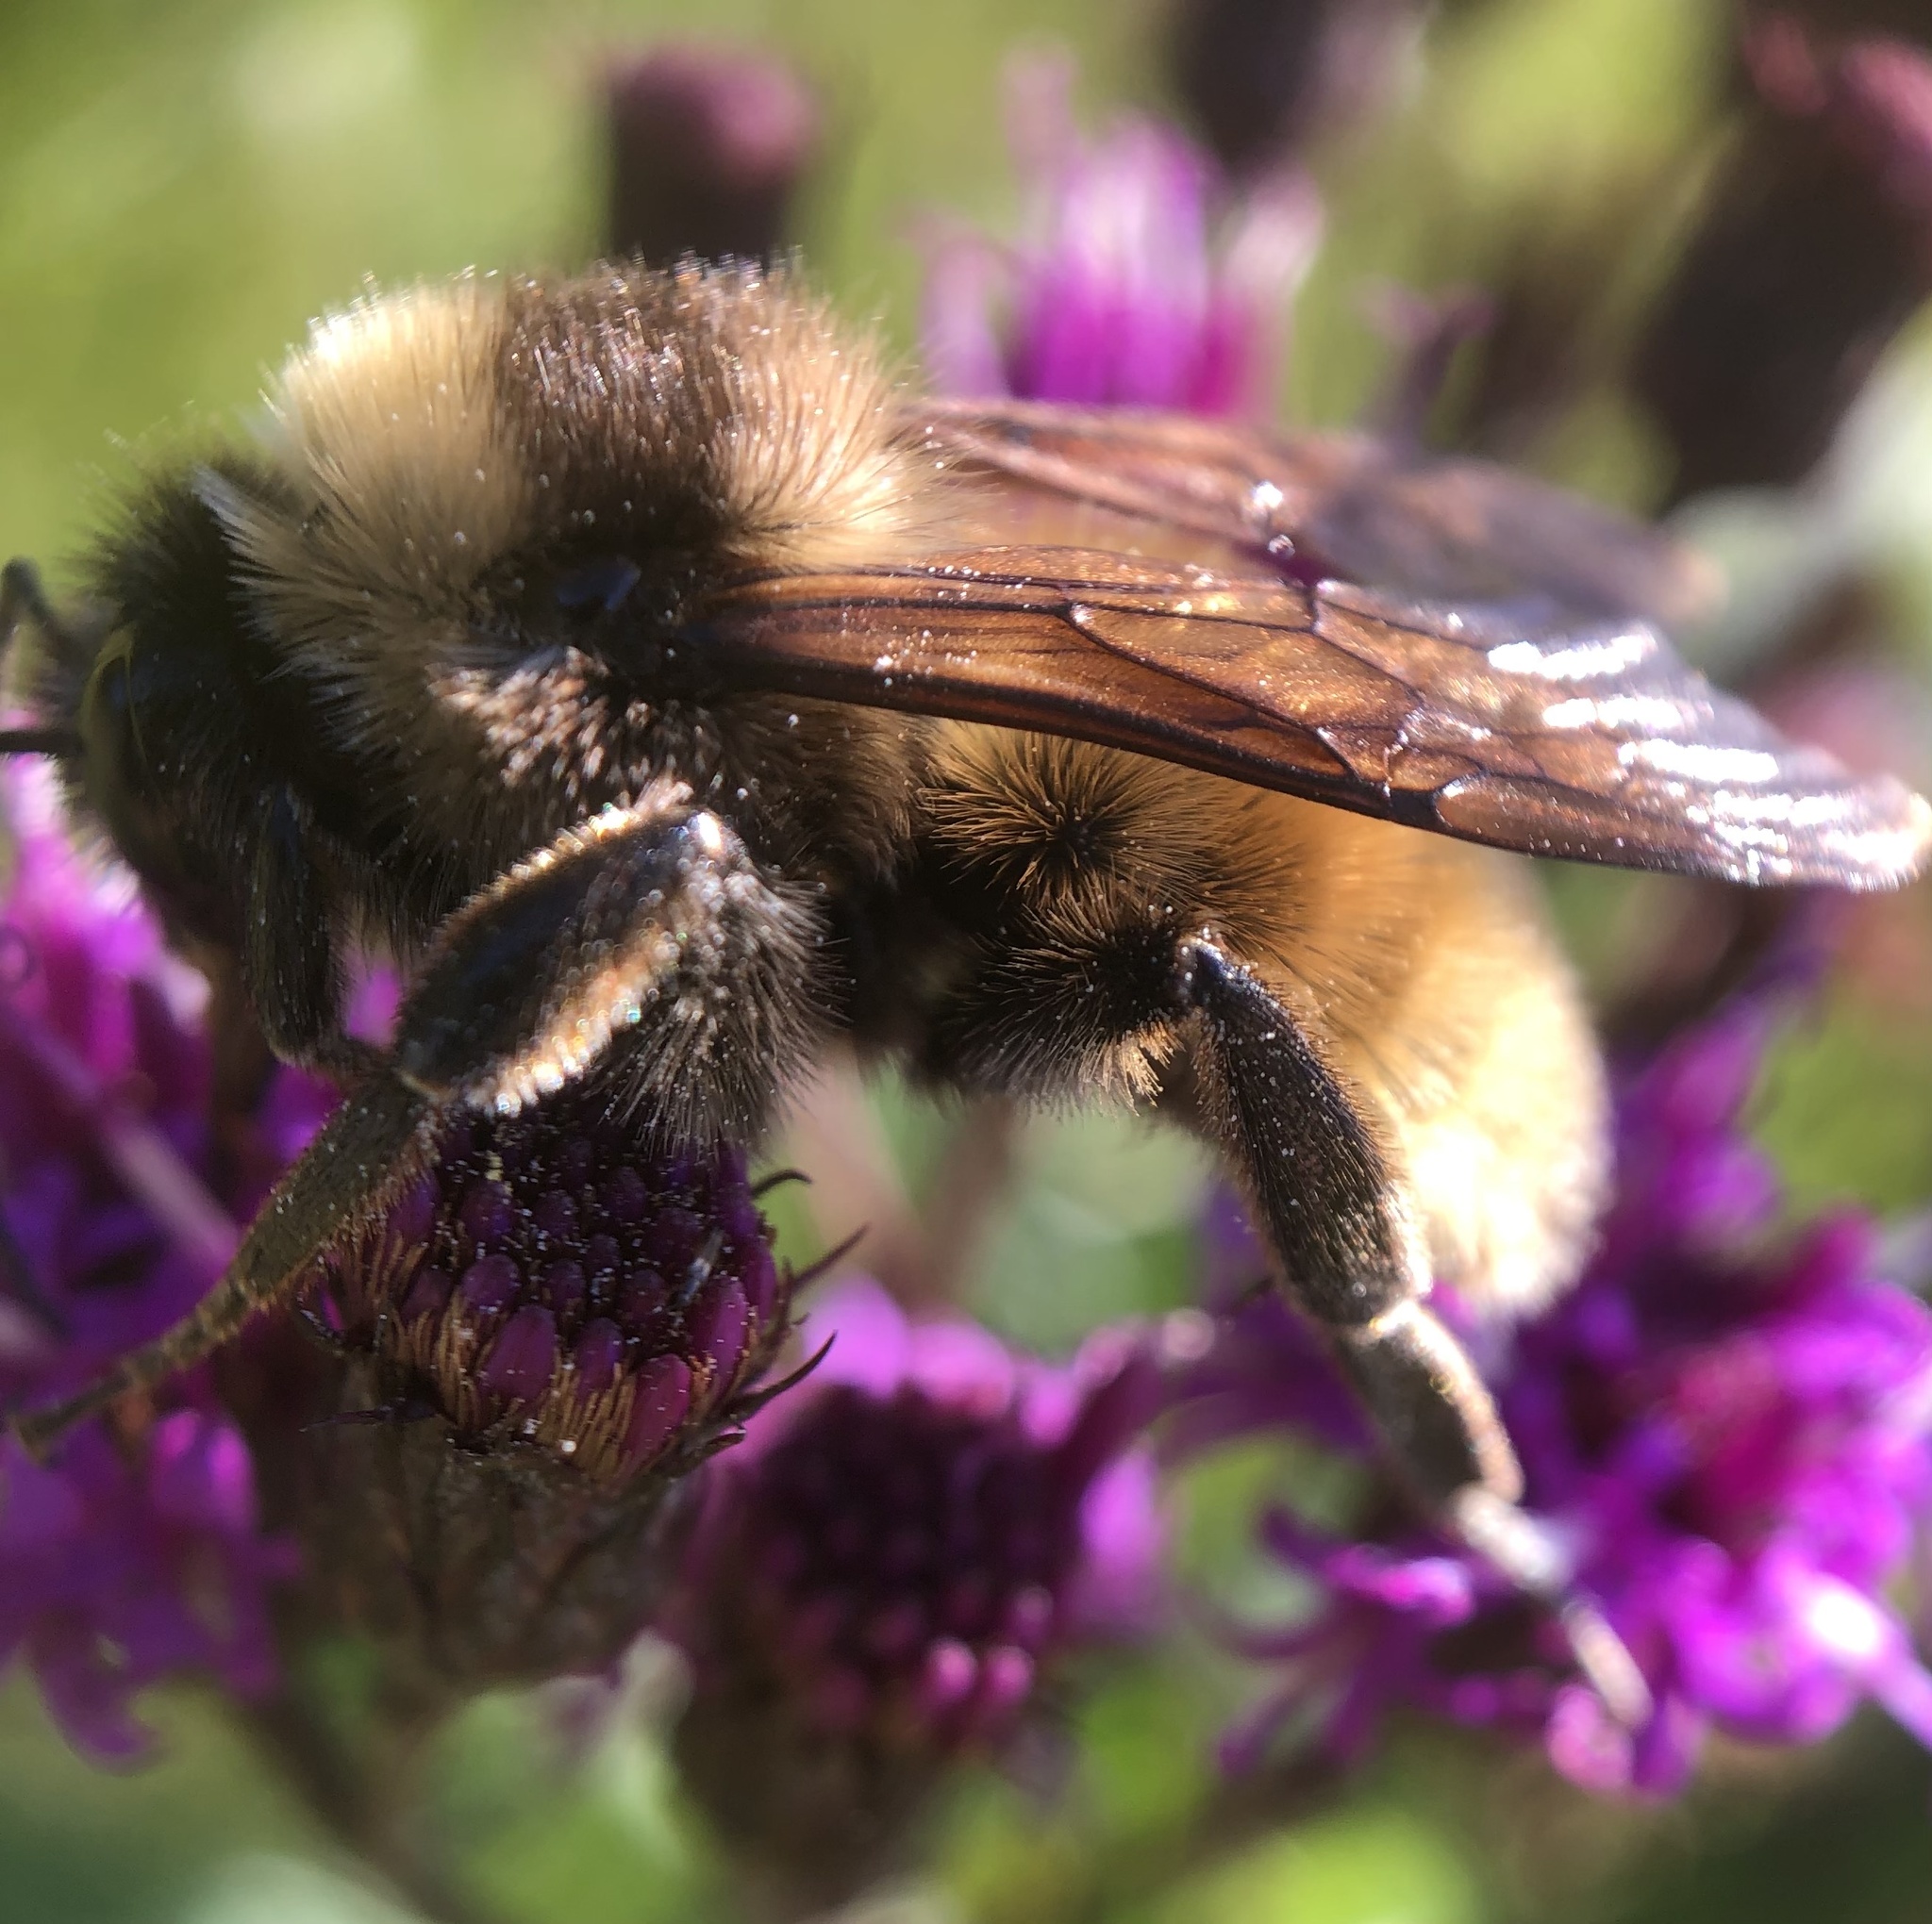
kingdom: Animalia
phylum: Arthropoda
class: Insecta
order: Hymenoptera
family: Apidae
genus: Bombus
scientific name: Bombus pensylvanicus
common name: Bumble bee
